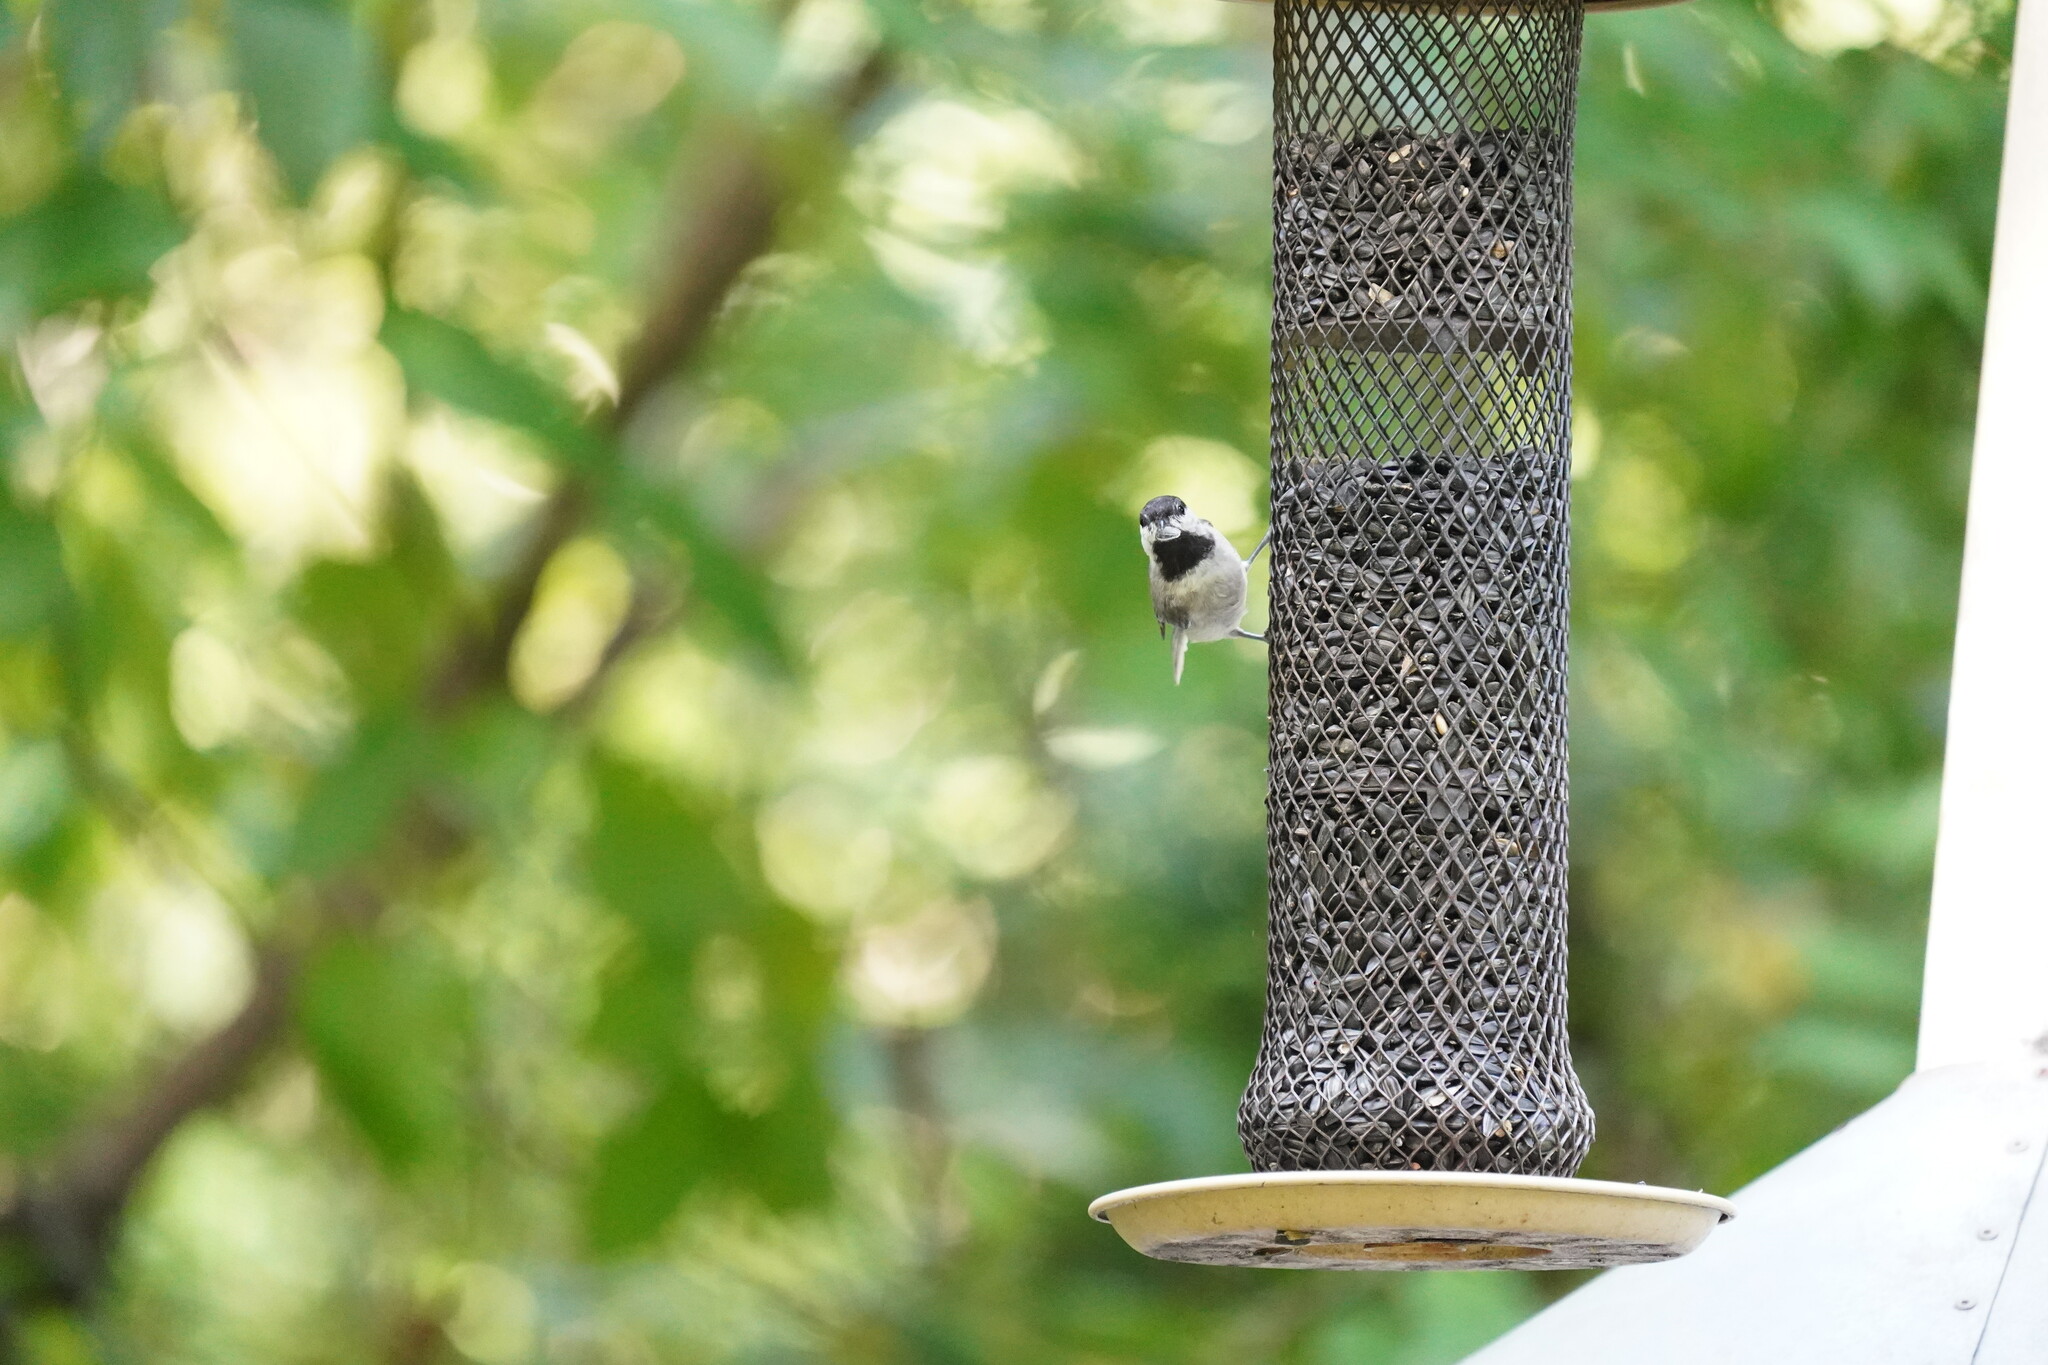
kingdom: Animalia
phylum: Chordata
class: Aves
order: Passeriformes
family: Paridae
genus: Poecile
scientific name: Poecile carolinensis
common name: Carolina chickadee
